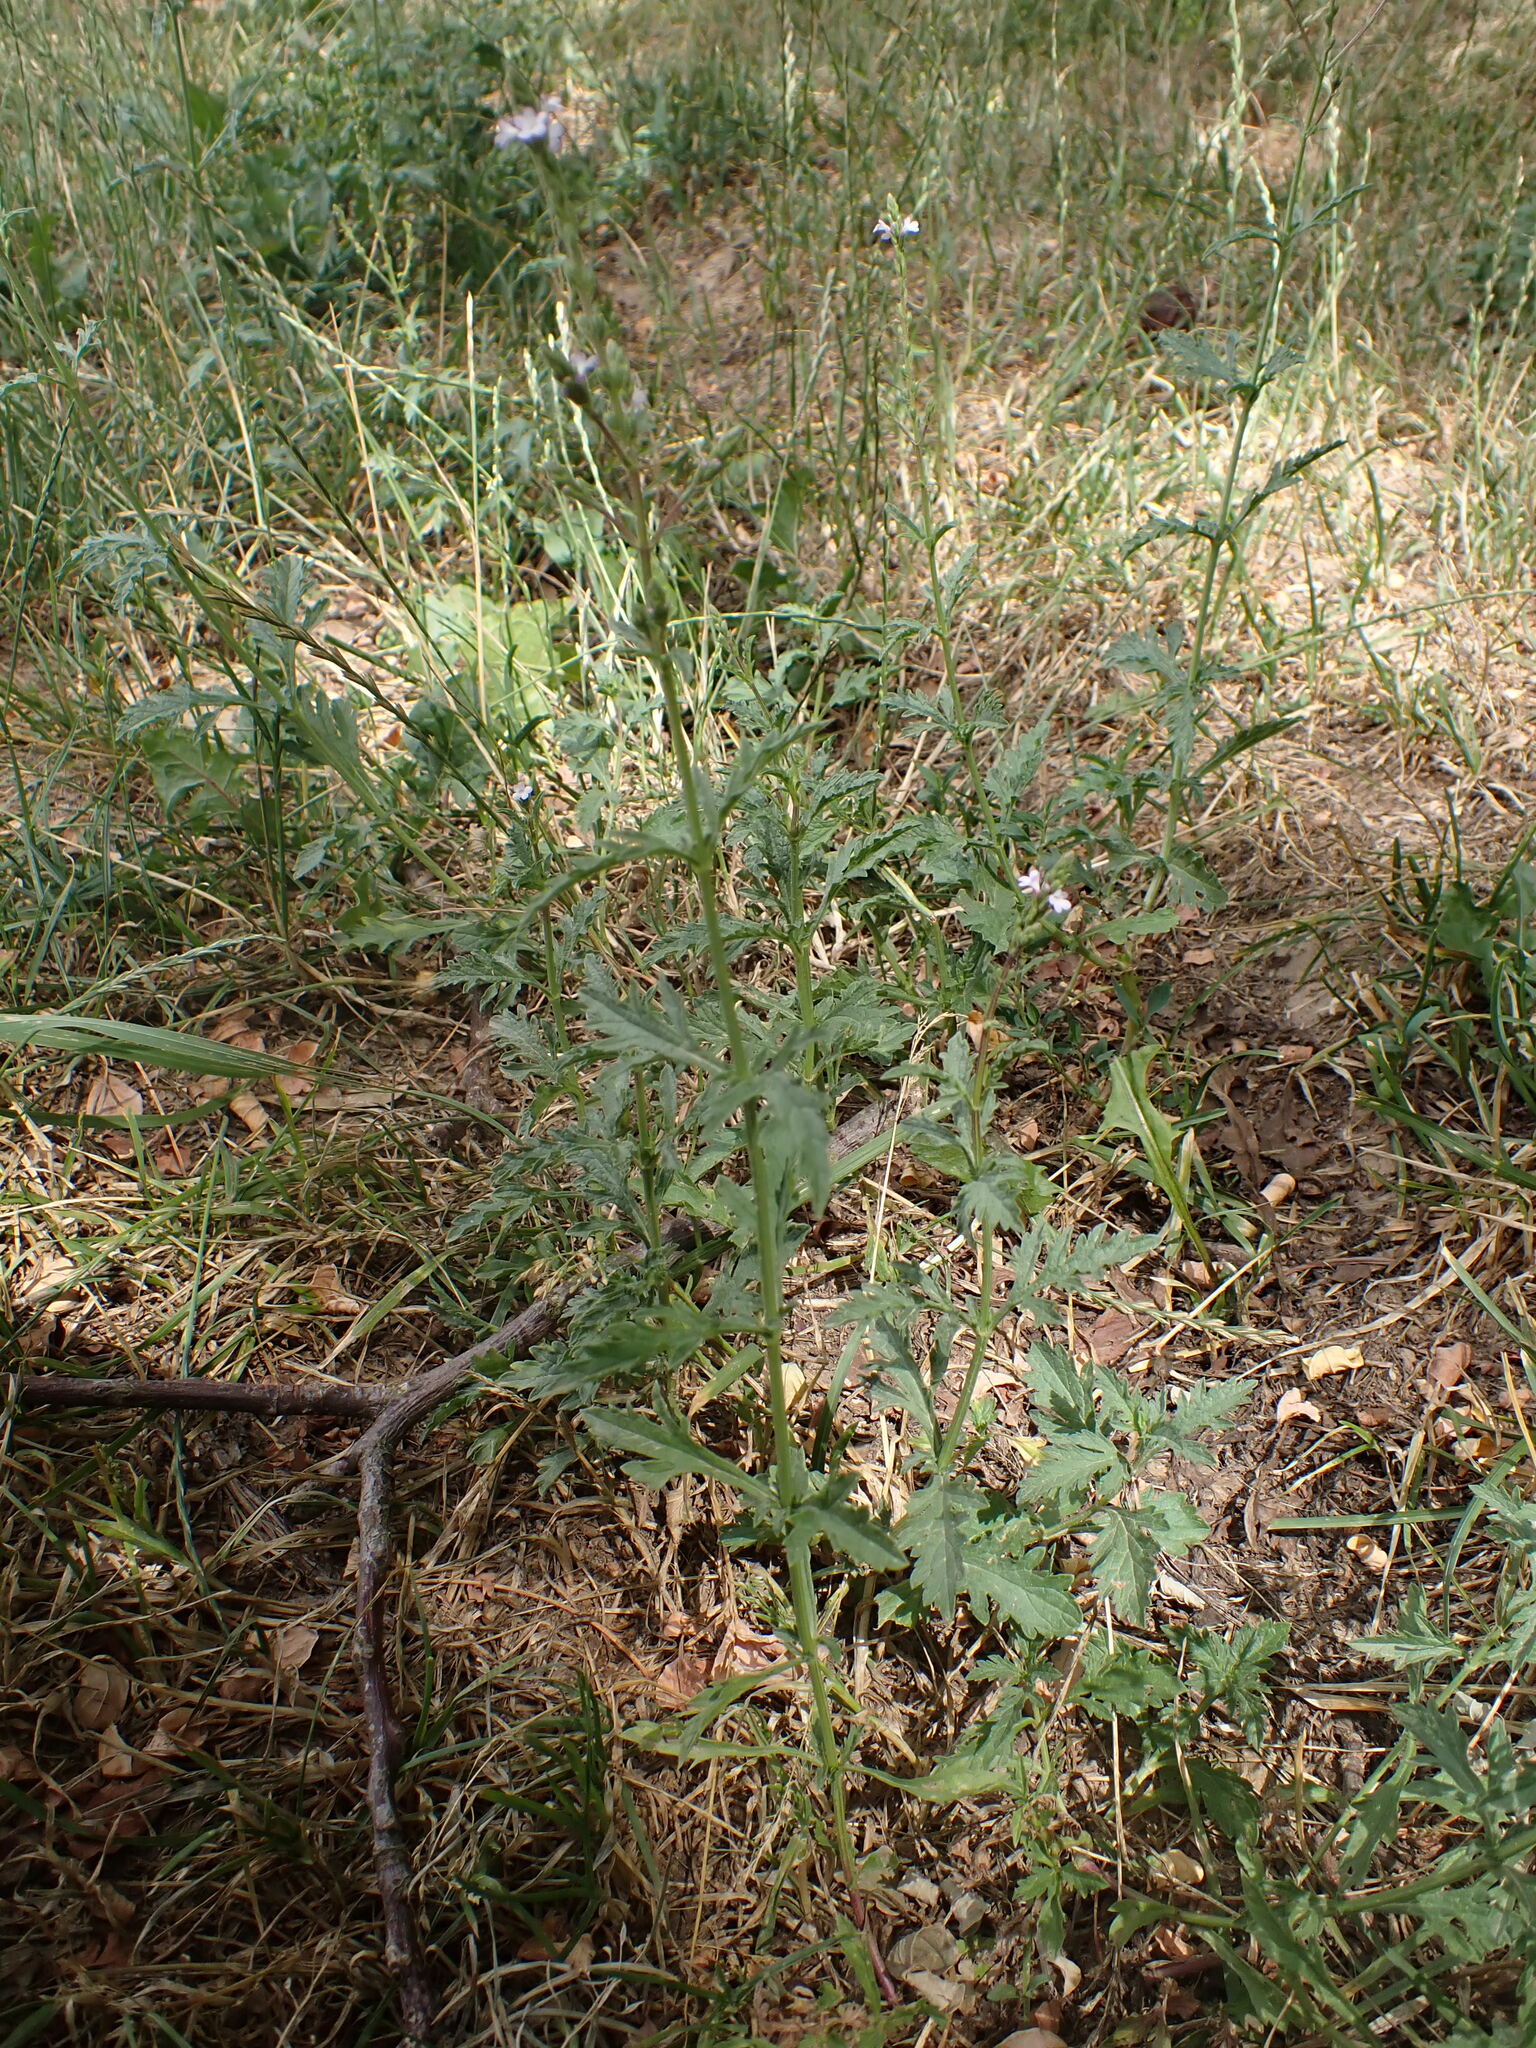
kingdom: Plantae
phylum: Tracheophyta
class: Magnoliopsida
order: Lamiales
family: Verbenaceae
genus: Verbena
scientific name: Verbena officinalis
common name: Vervain
